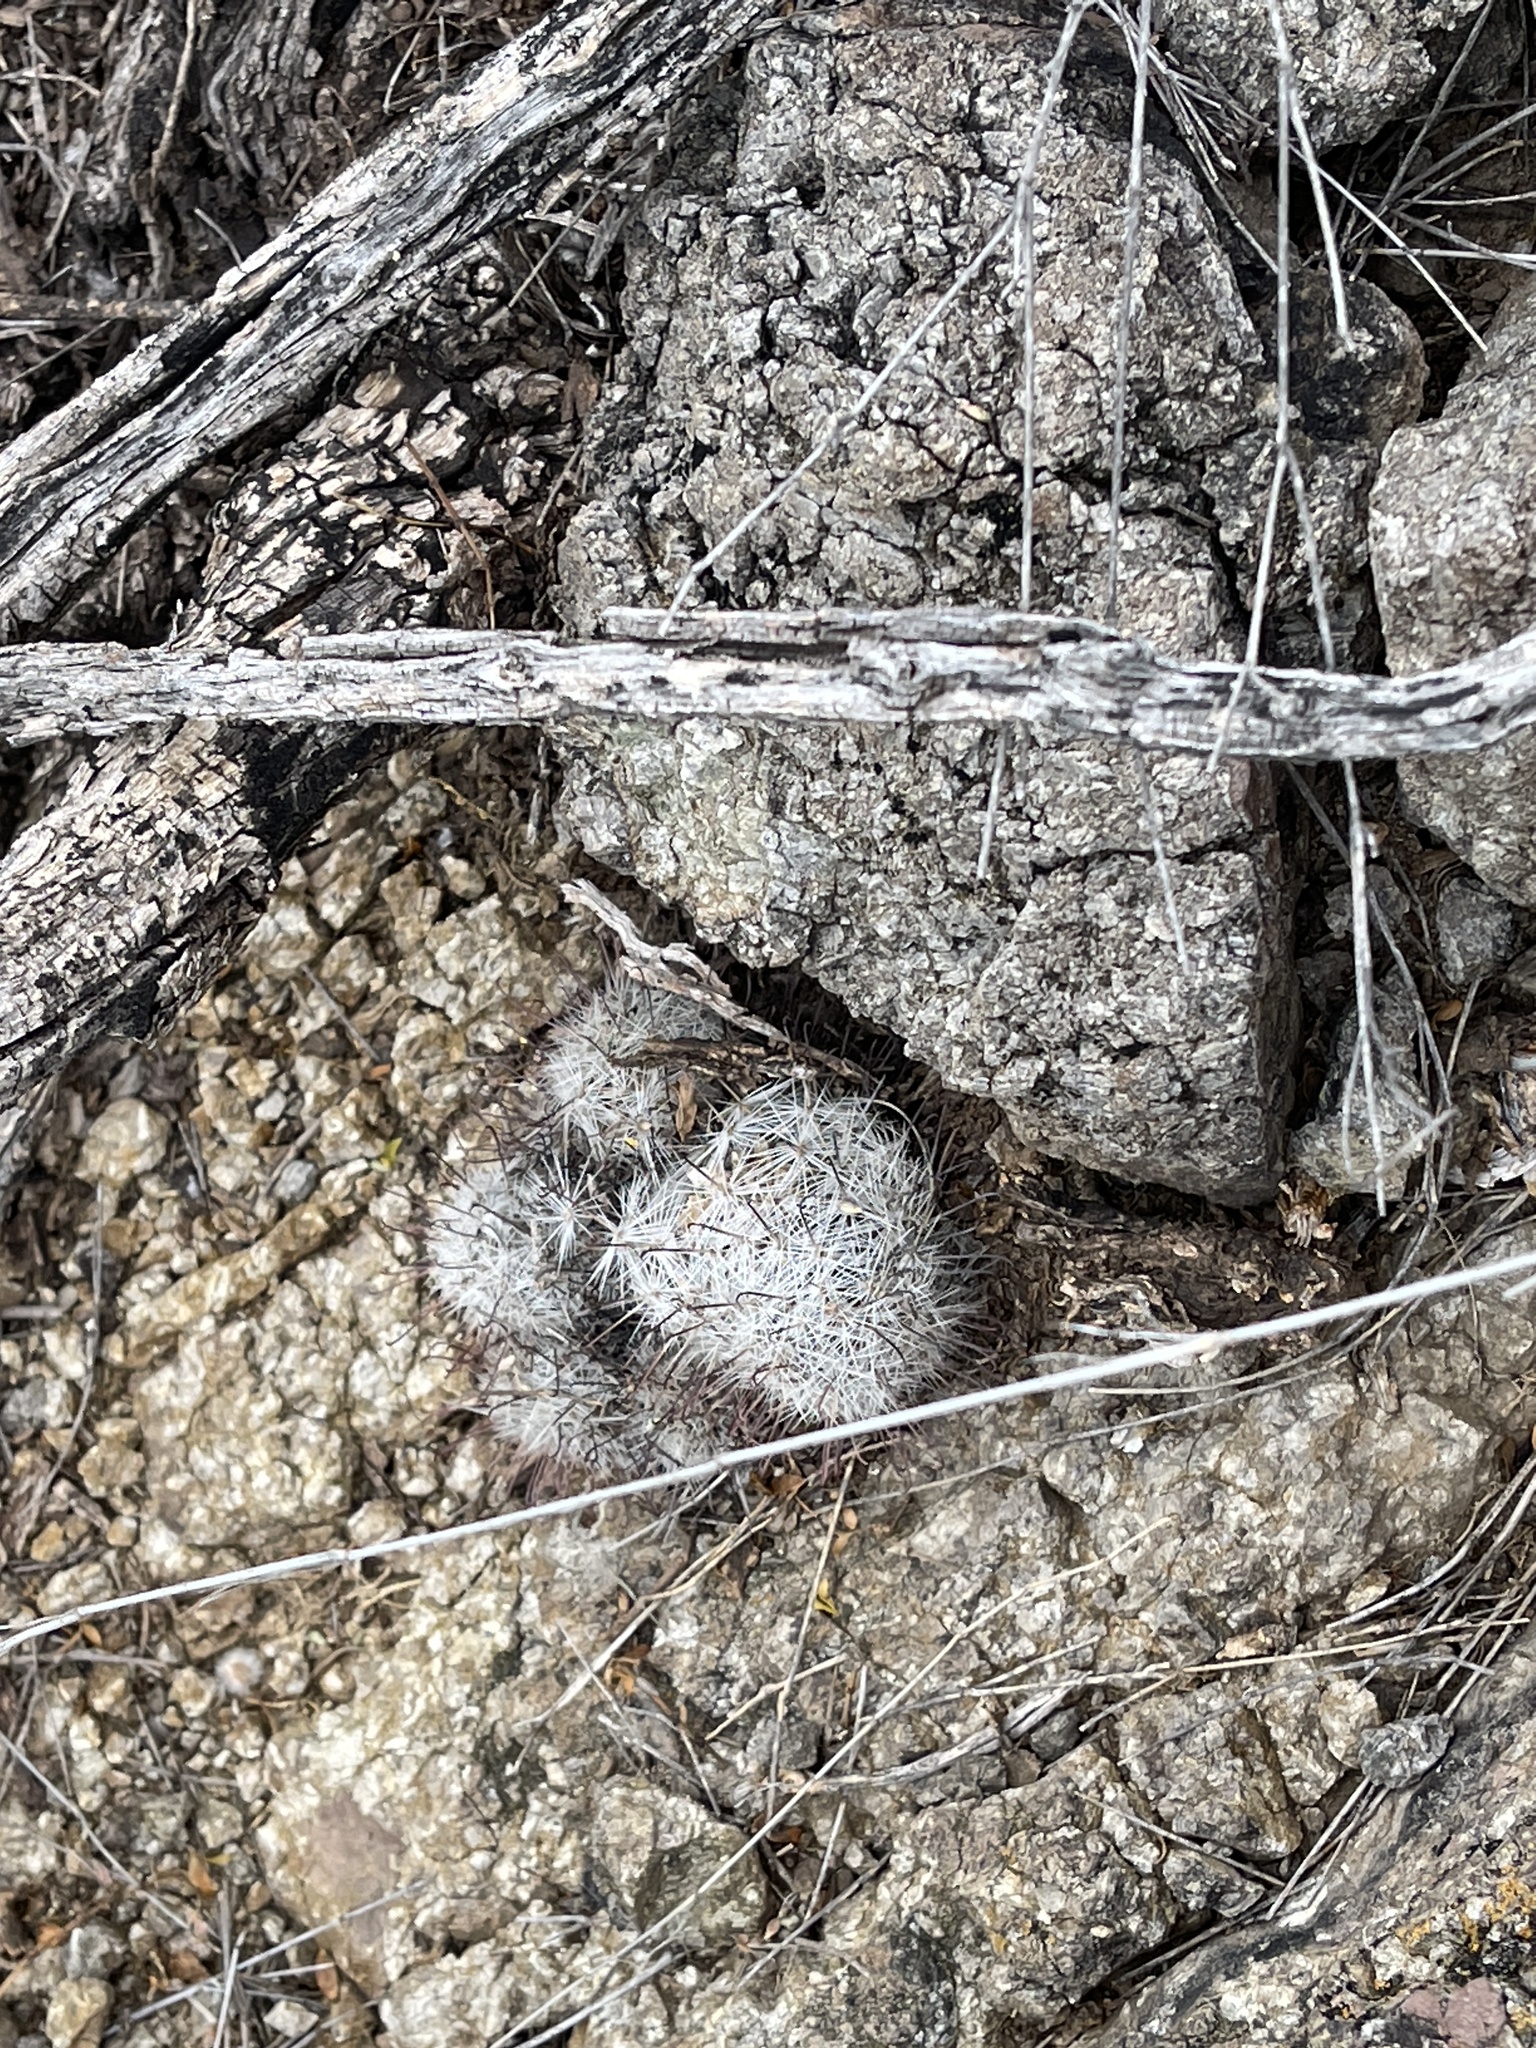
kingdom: Plantae
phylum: Tracheophyta
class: Magnoliopsida
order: Caryophyllales
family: Cactaceae
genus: Cochemiea
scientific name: Cochemiea grahamii
